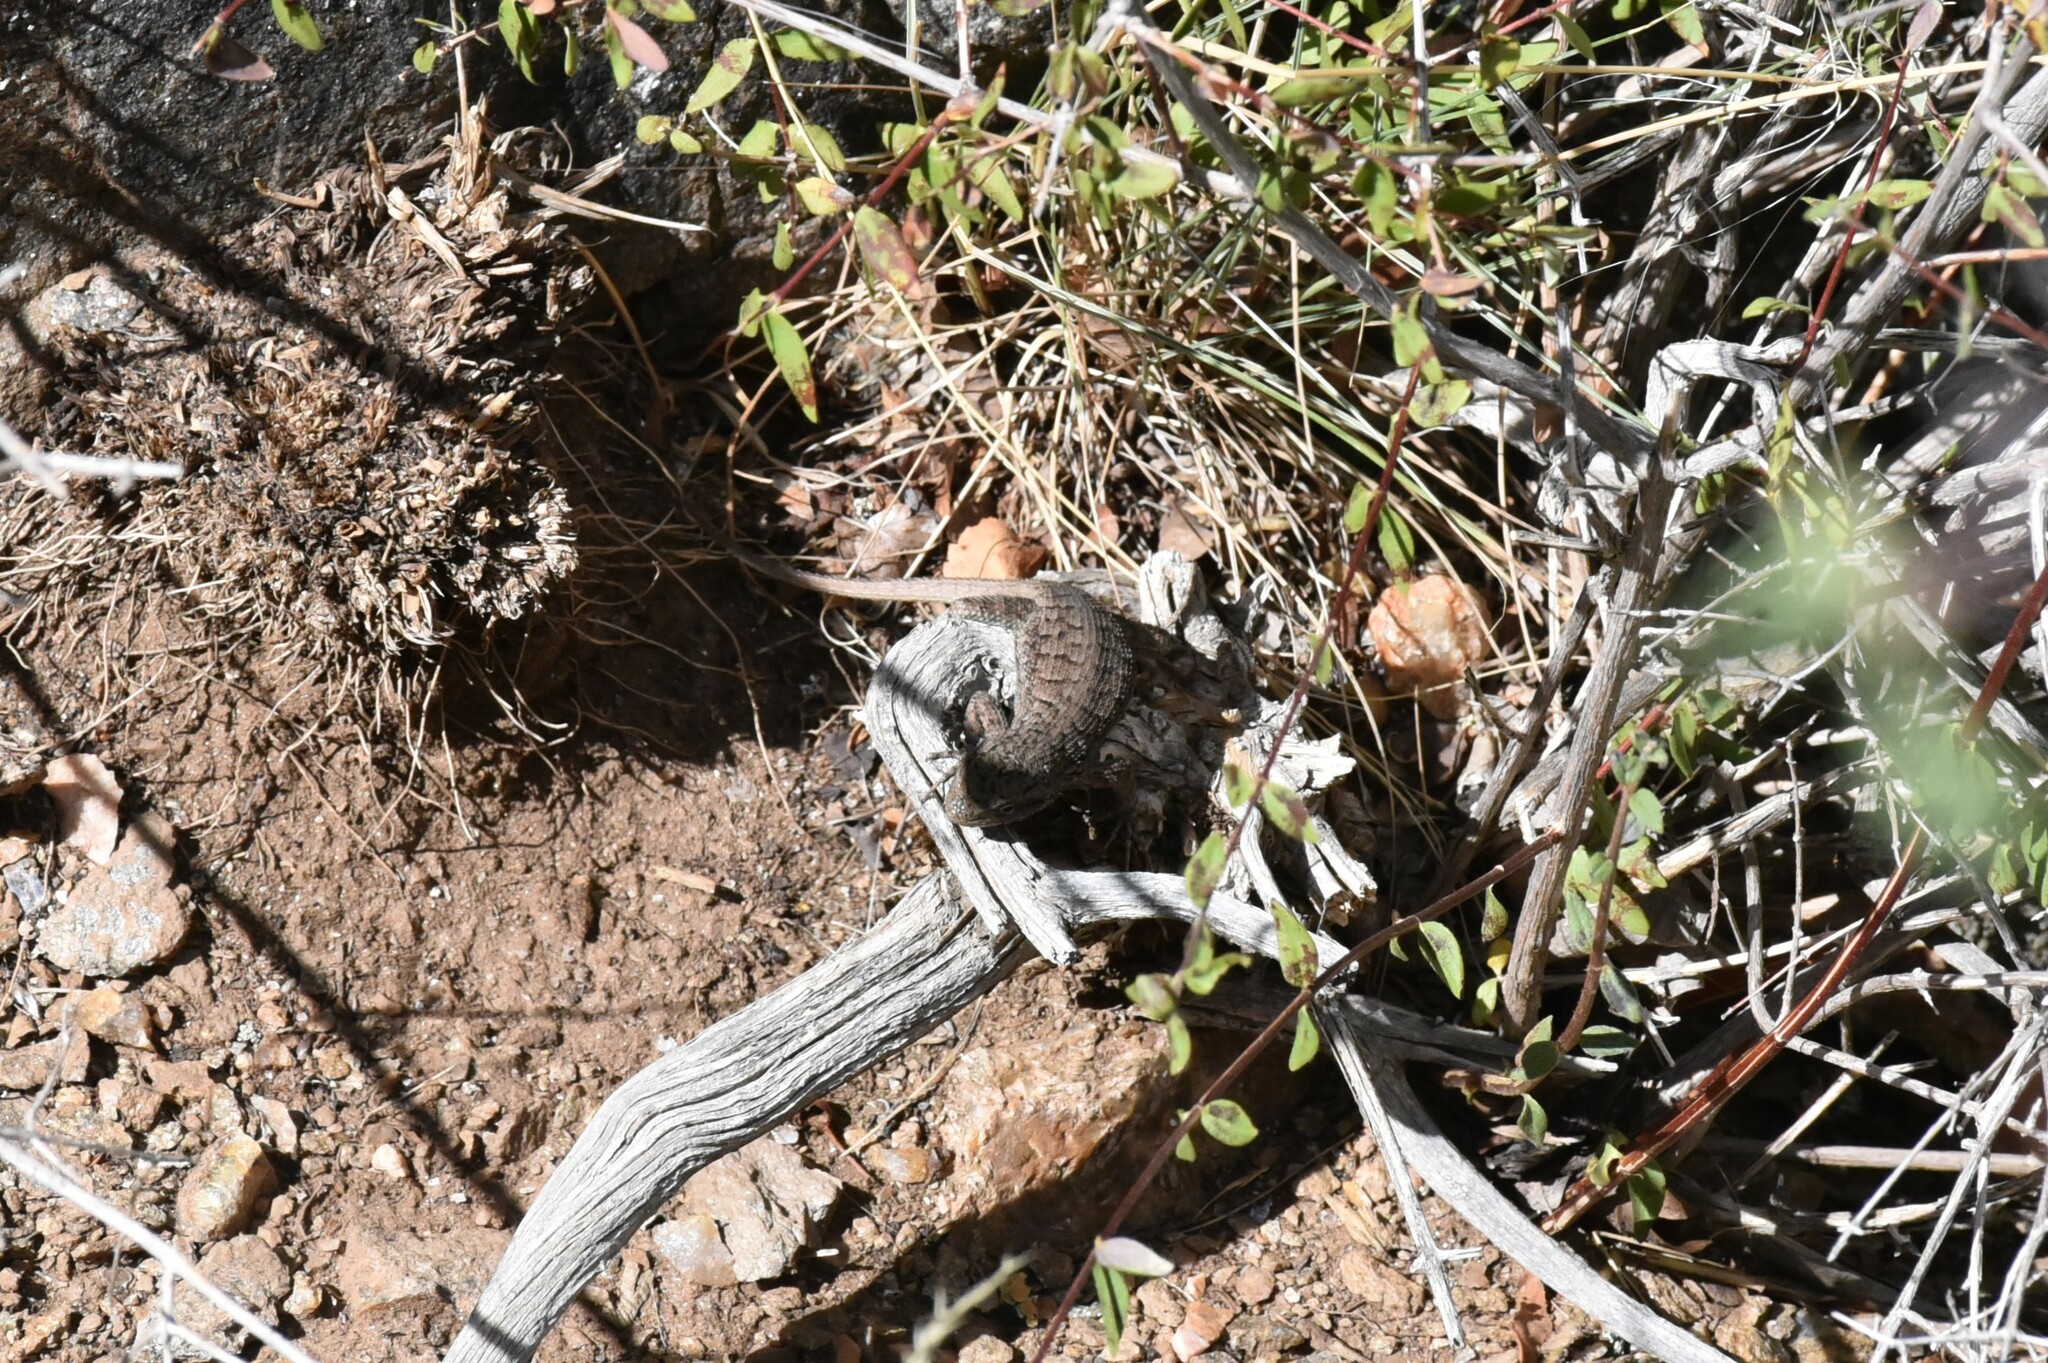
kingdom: Animalia
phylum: Chordata
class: Squamata
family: Phrynosomatidae
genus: Sceloporus
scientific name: Sceloporus tristichus
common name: Plateau fence lizard
